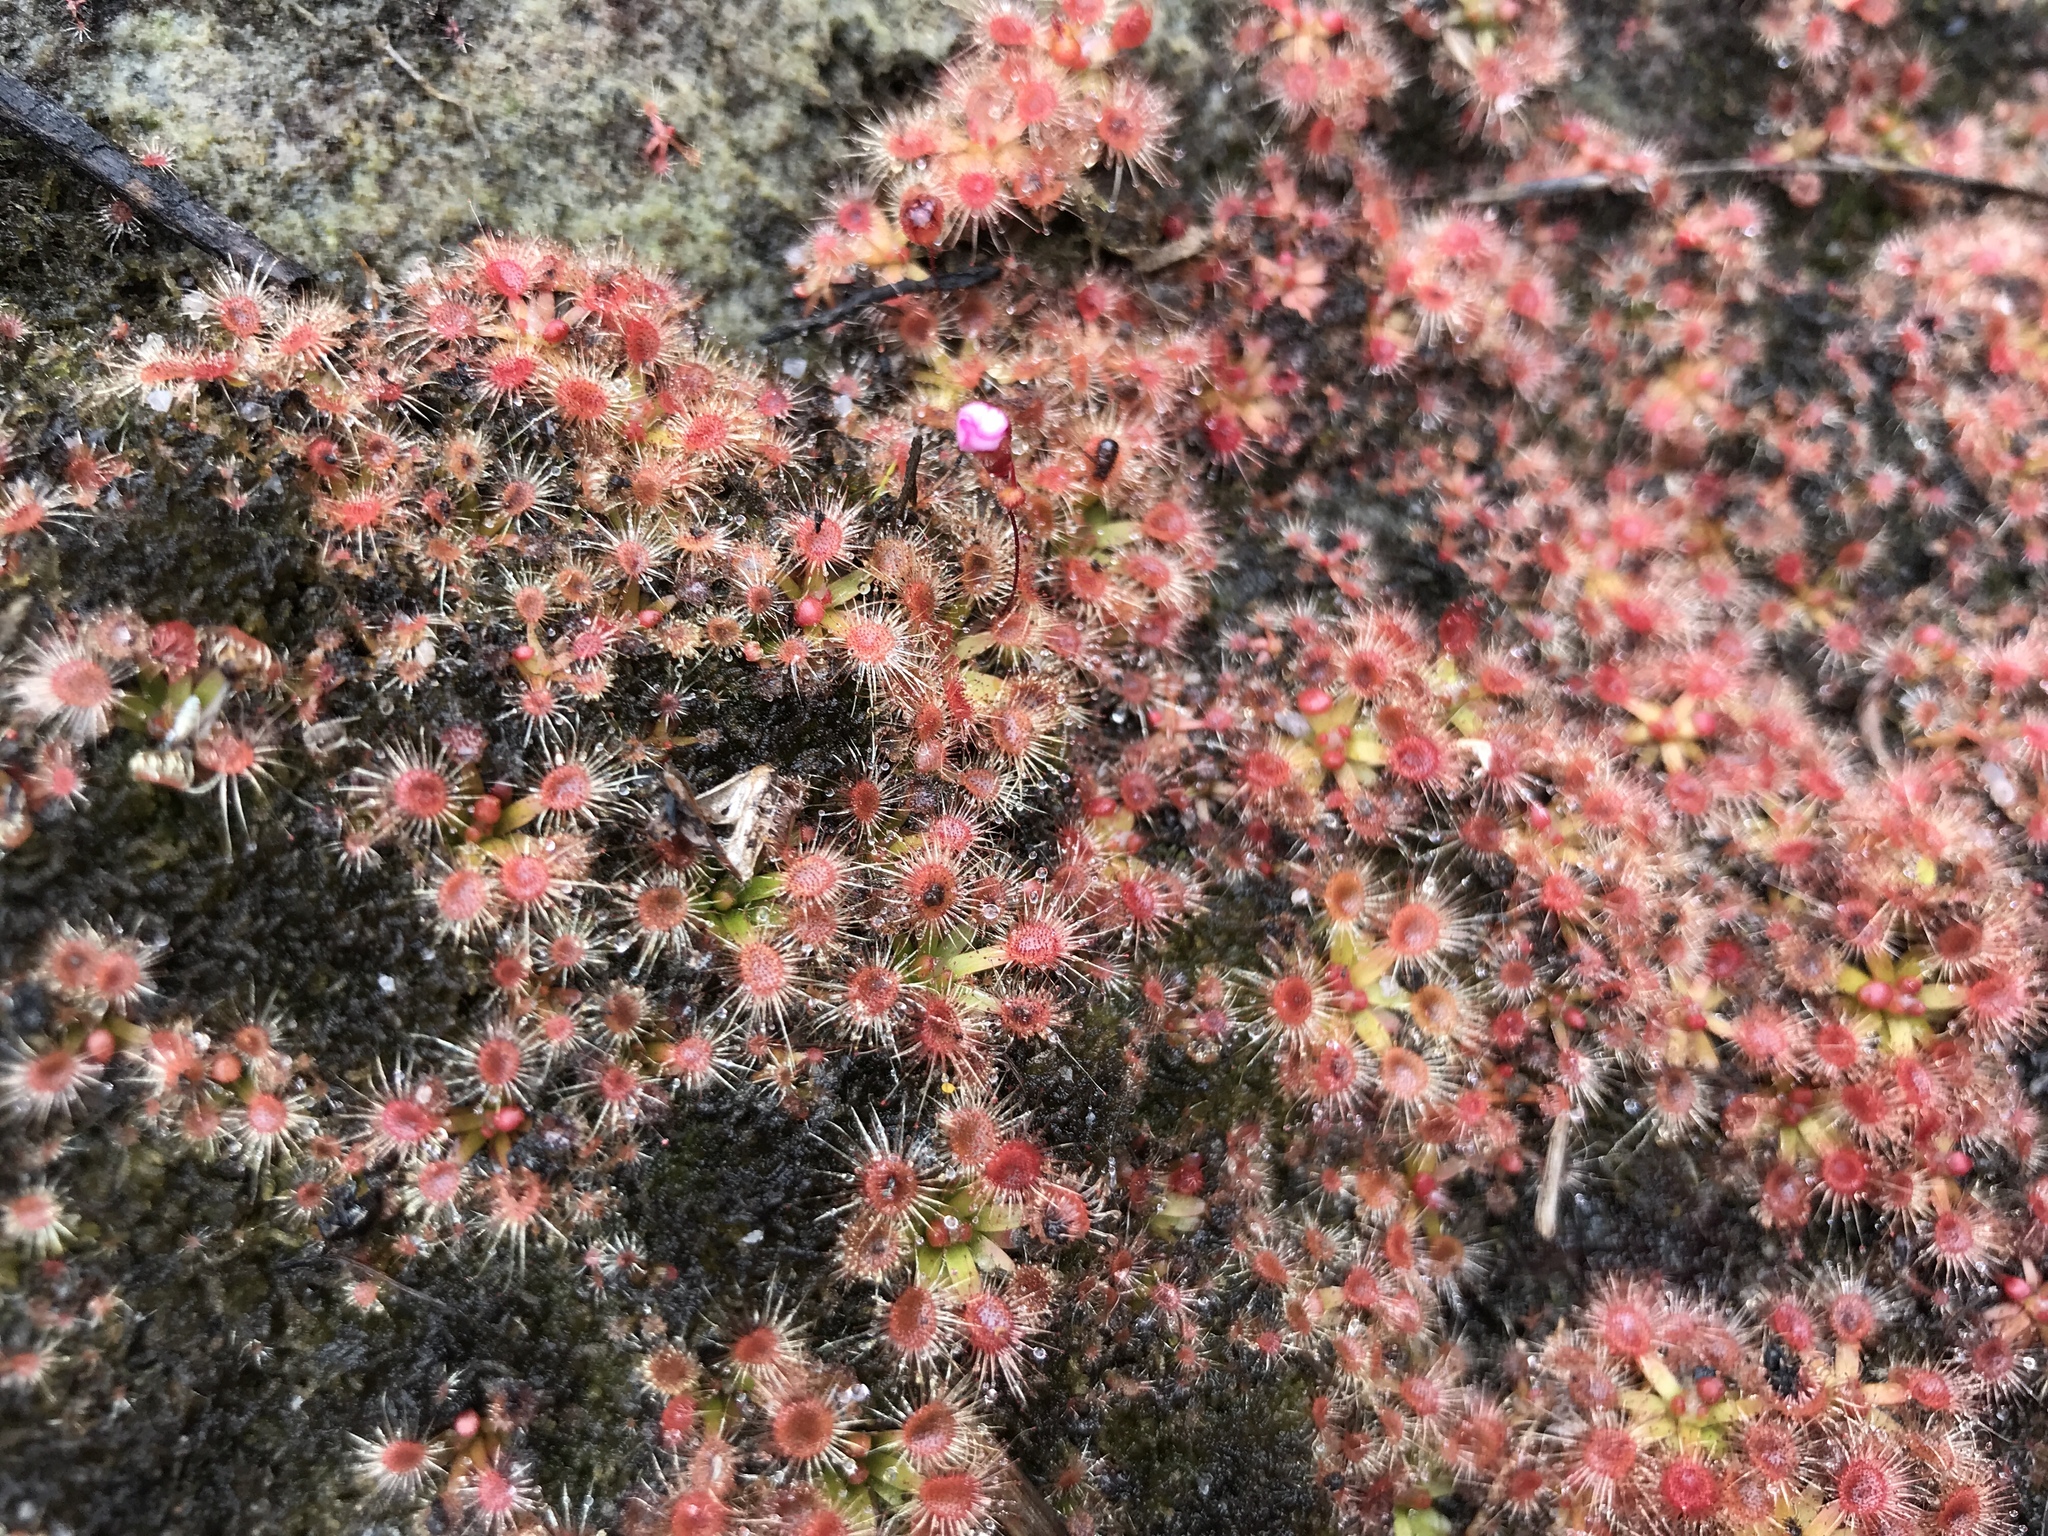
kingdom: Plantae
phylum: Tracheophyta
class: Magnoliopsida
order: Caryophyllales
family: Droseraceae
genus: Drosera
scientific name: Drosera pulchella
